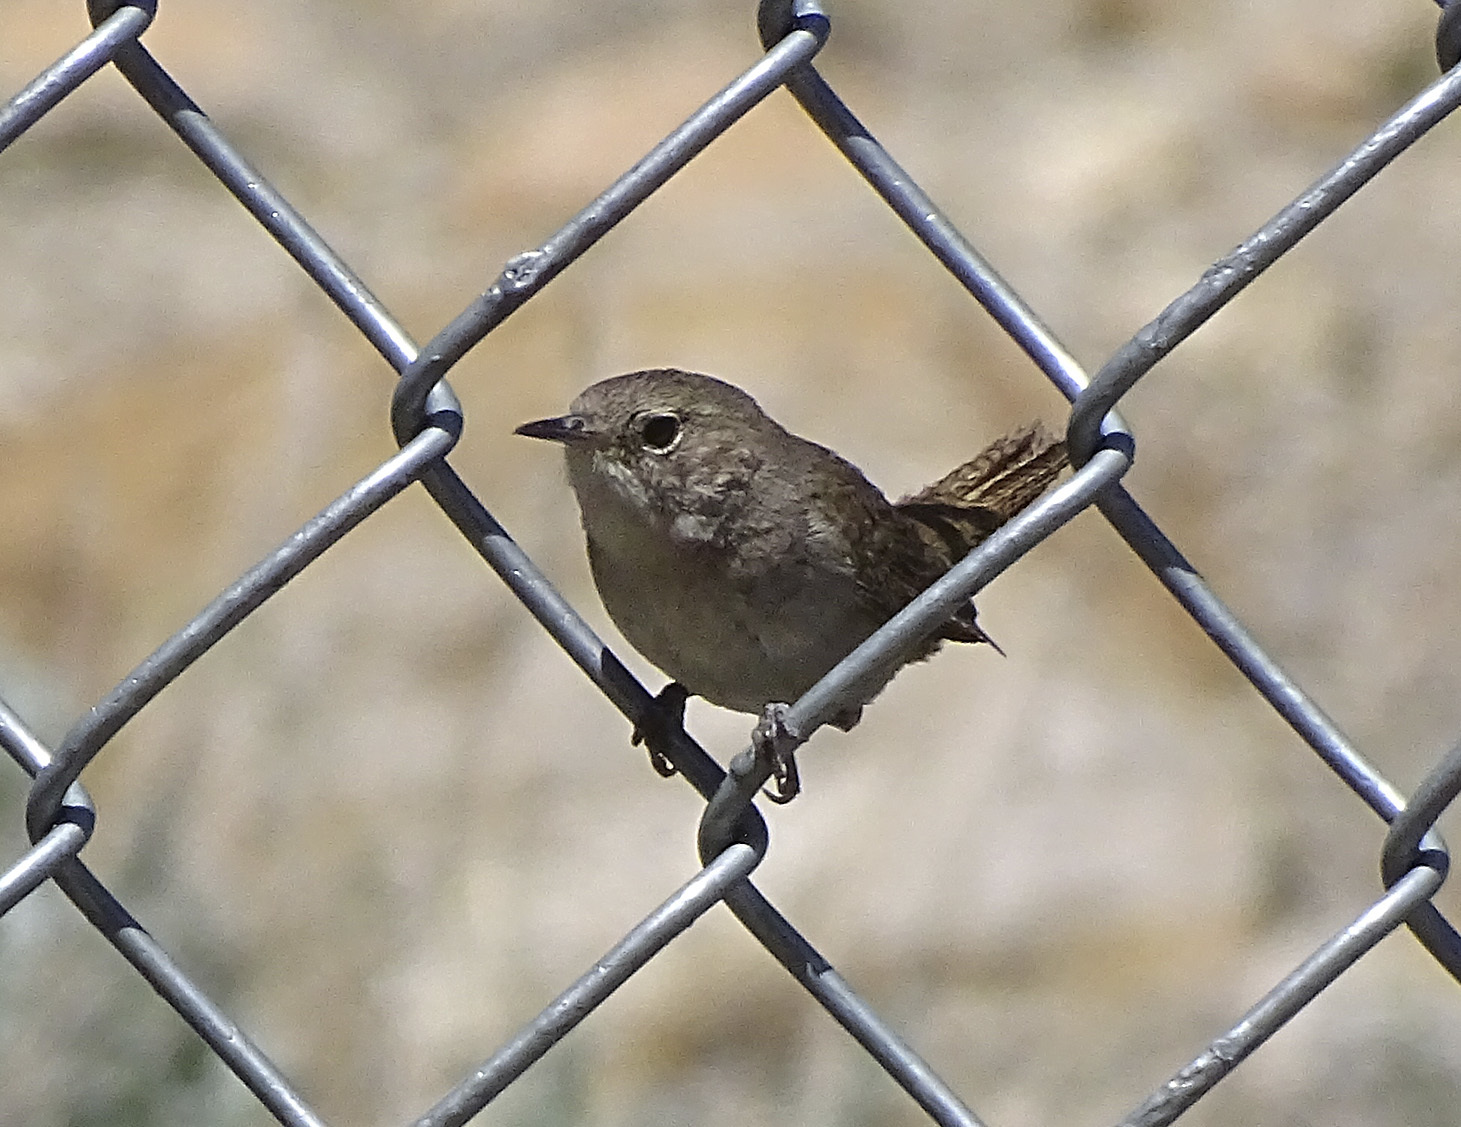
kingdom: Animalia
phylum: Chordata
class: Aves
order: Passeriformes
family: Troglodytidae
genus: Troglodytes
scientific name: Troglodytes aedon
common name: House wren
